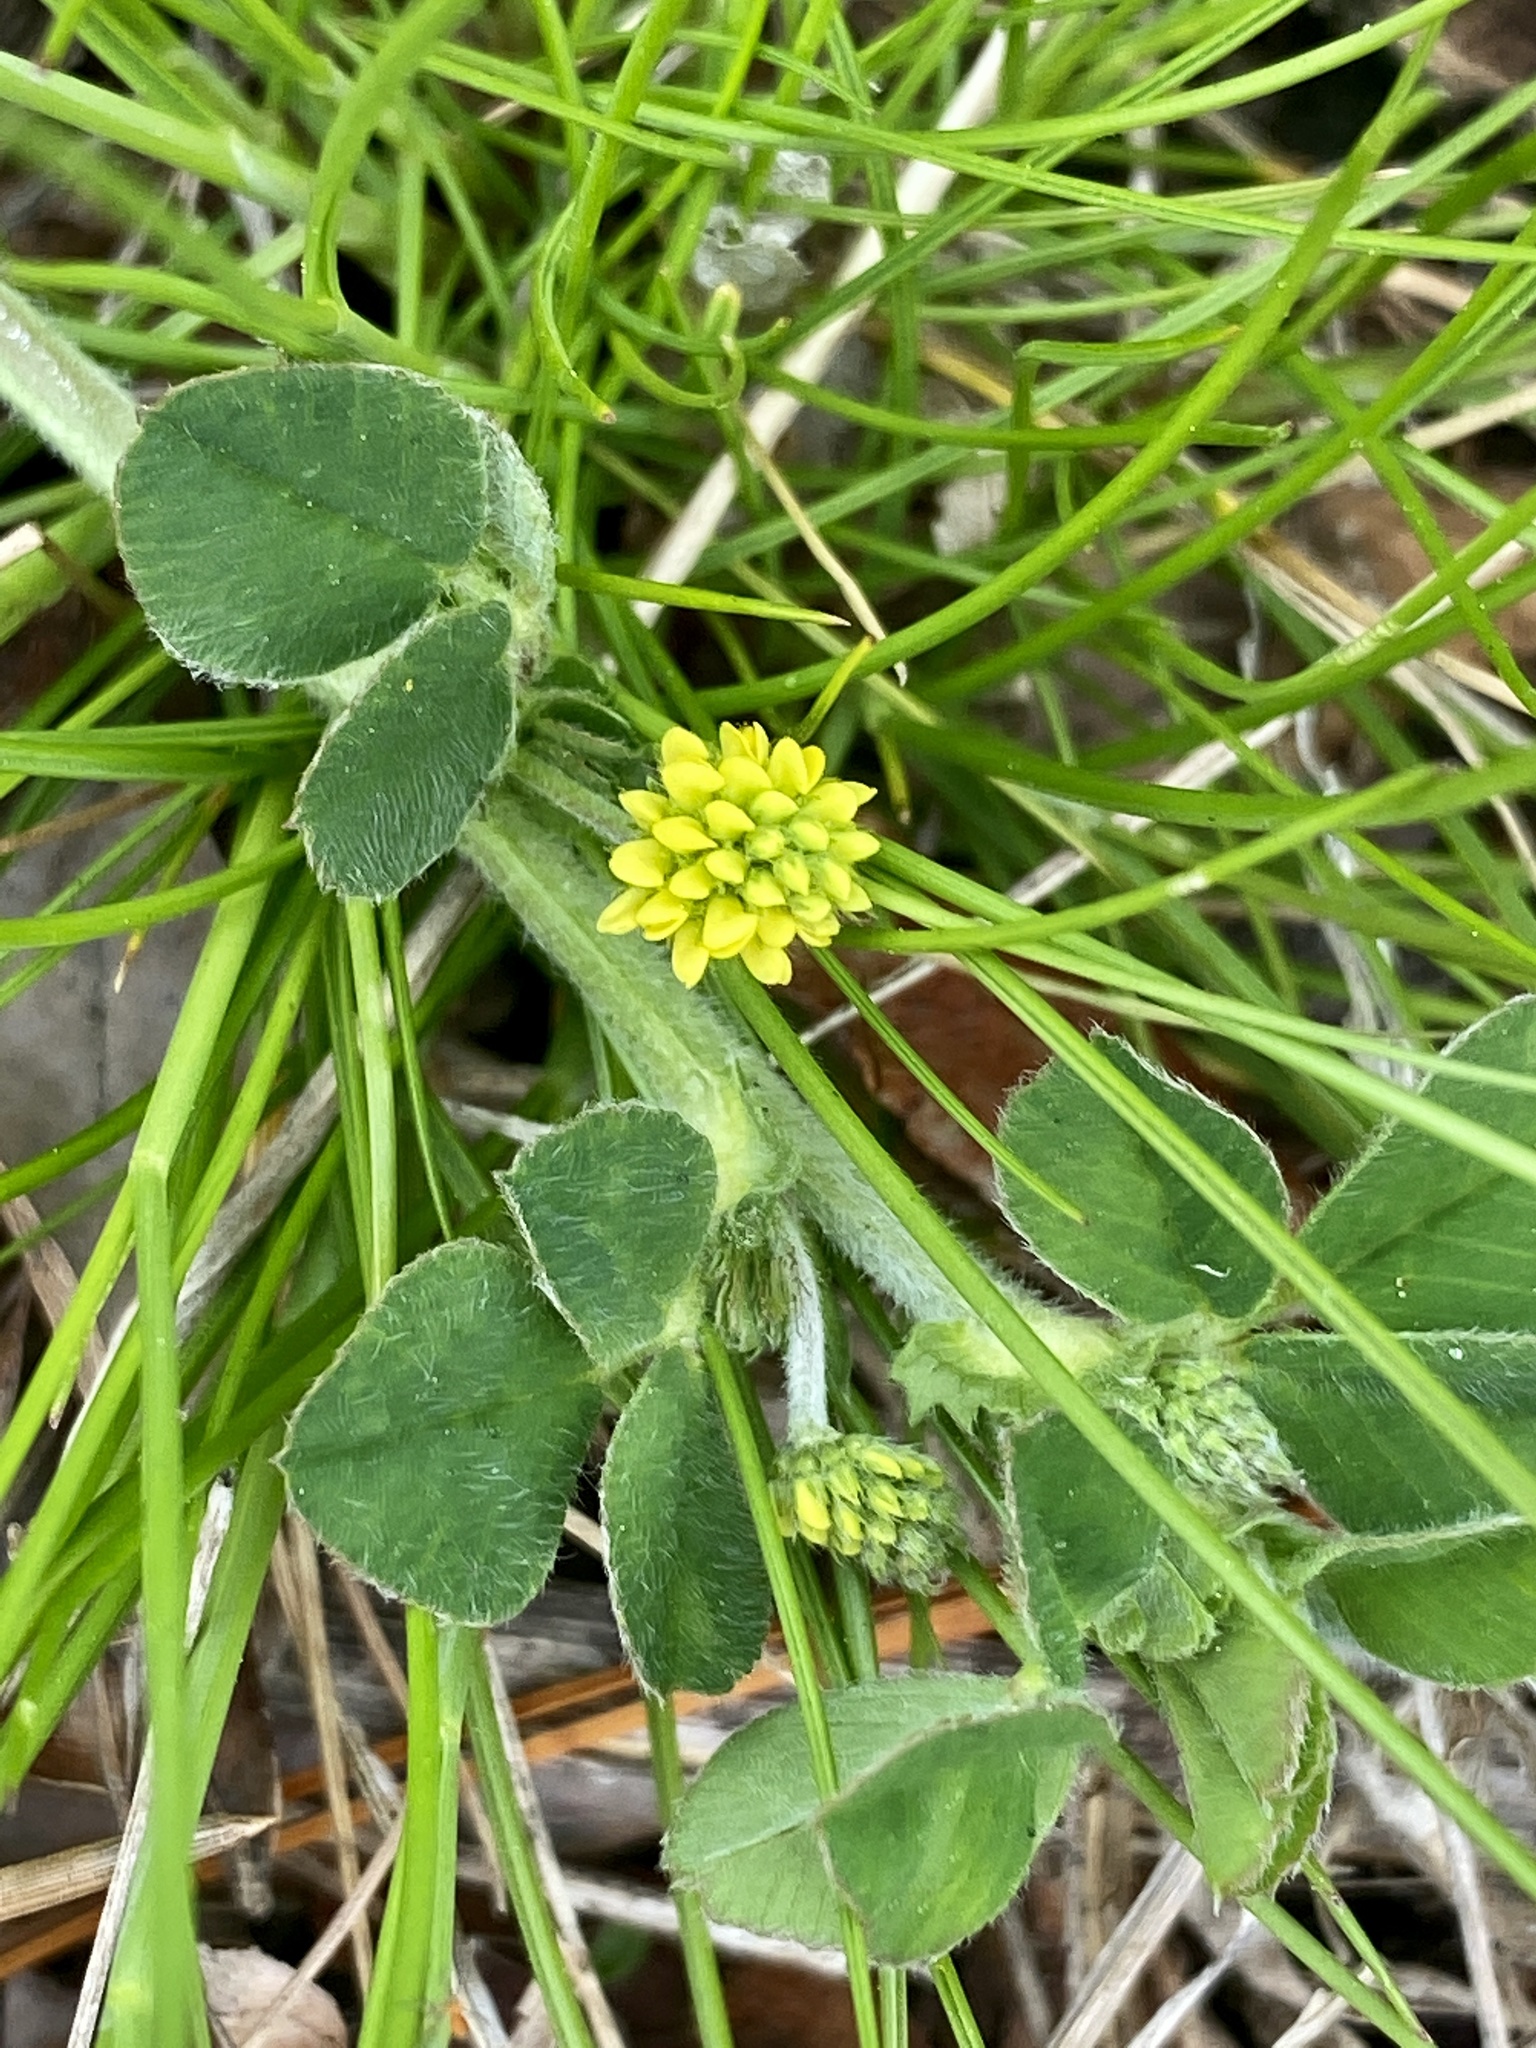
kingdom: Plantae
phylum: Tracheophyta
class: Magnoliopsida
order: Fabales
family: Fabaceae
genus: Medicago
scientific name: Medicago lupulina
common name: Black medick
